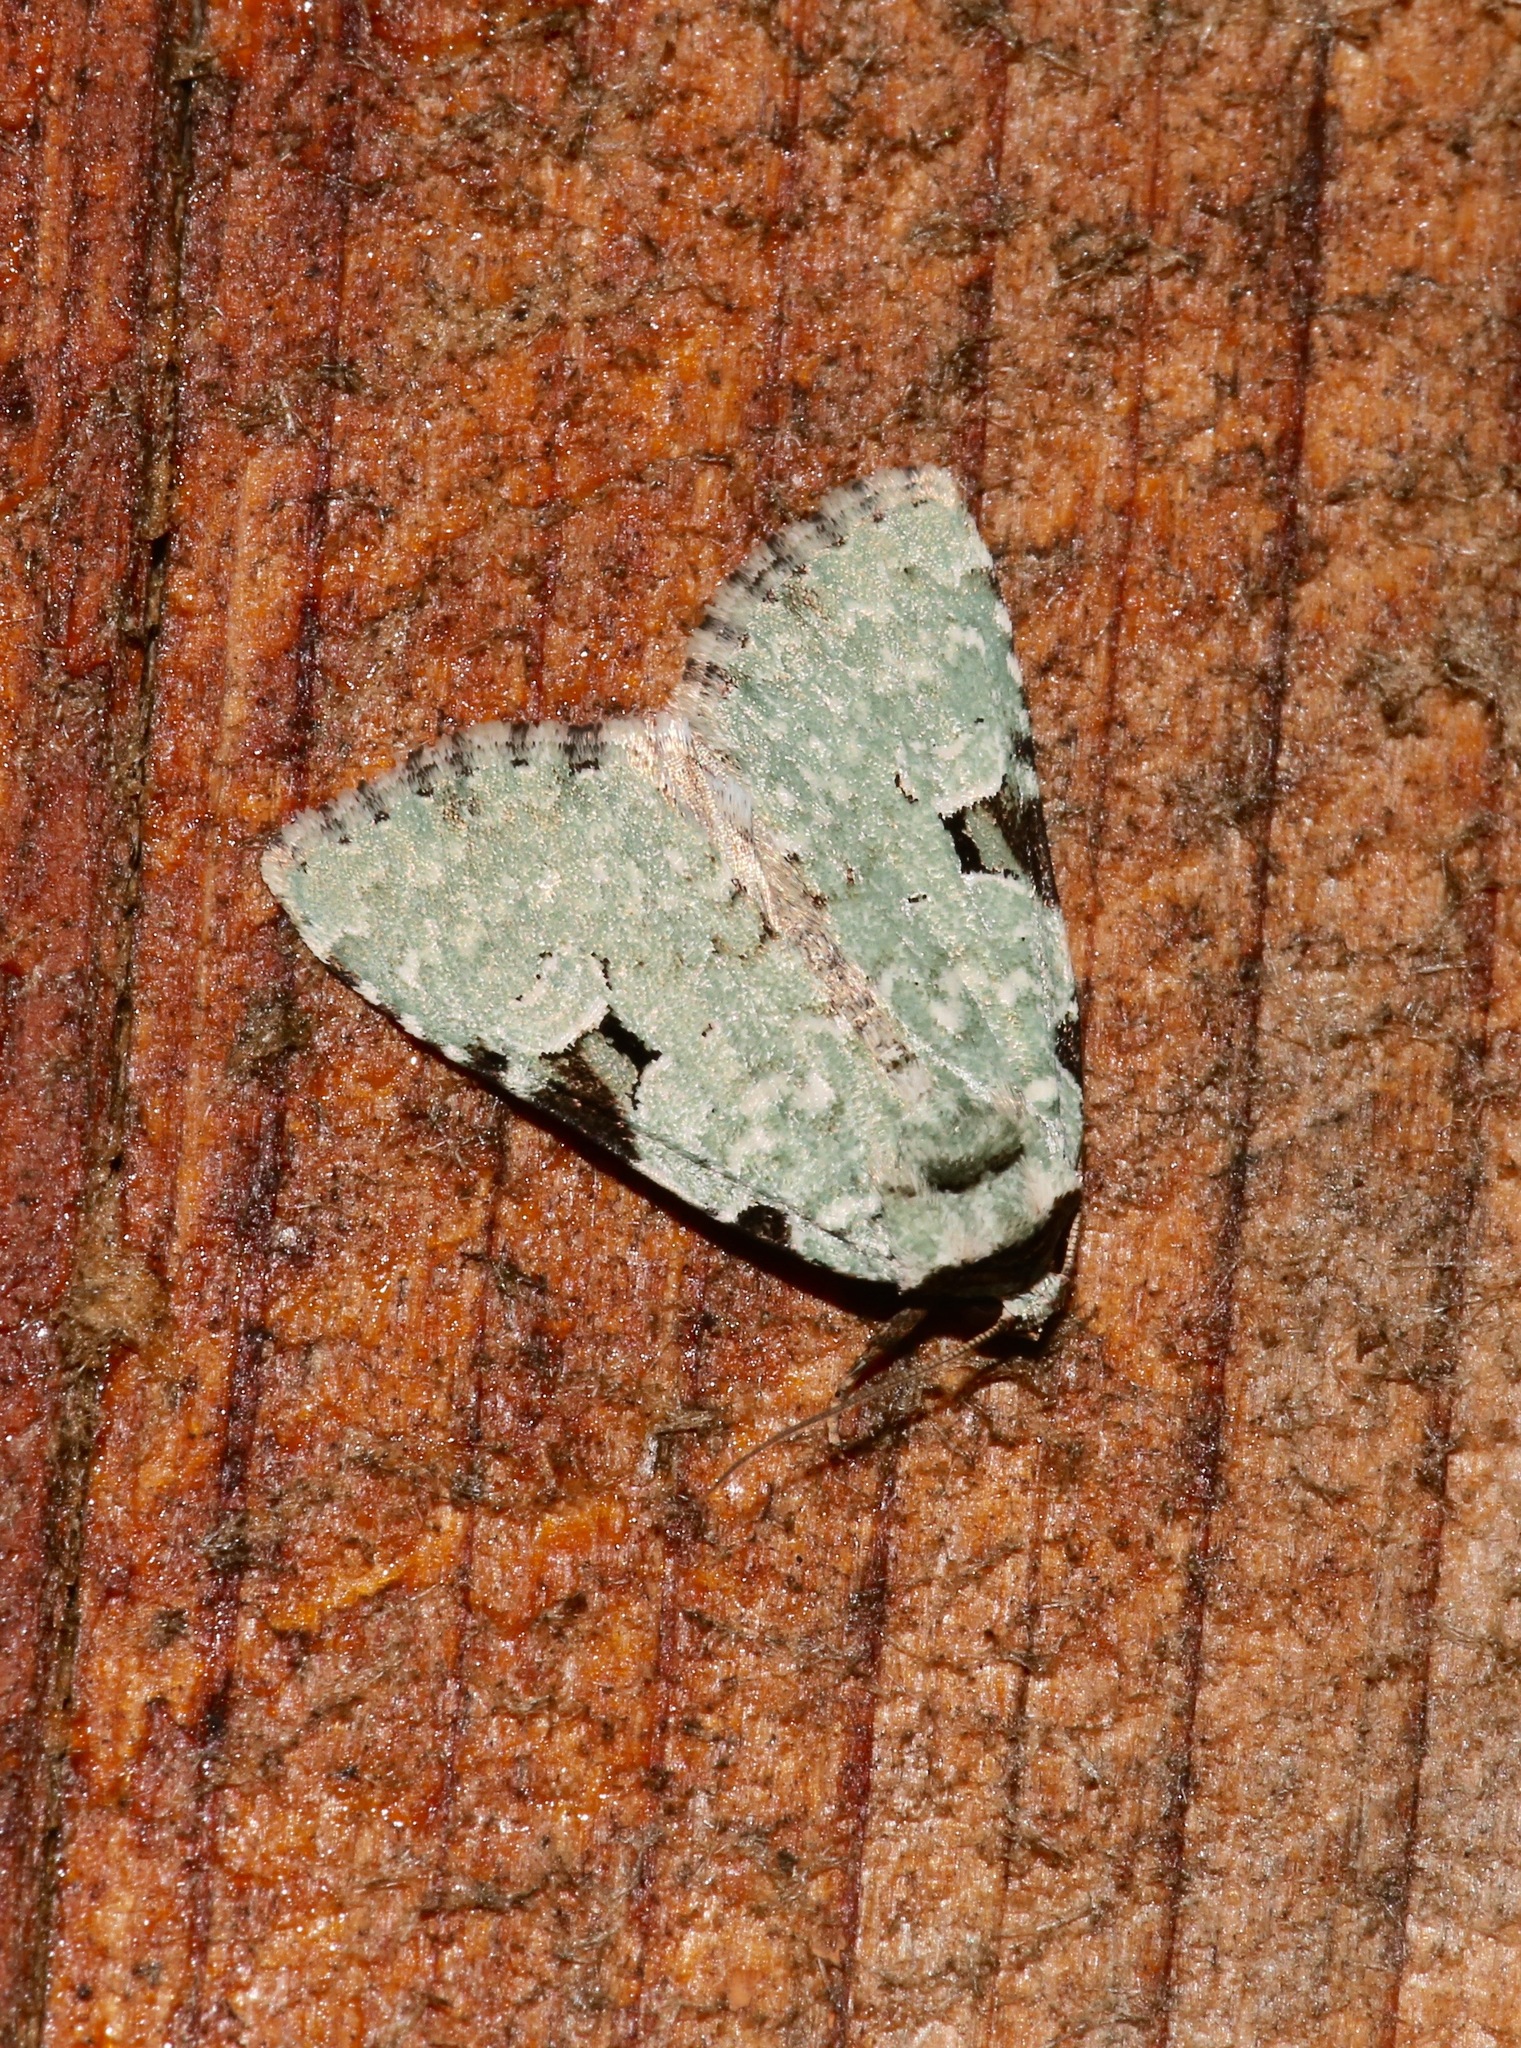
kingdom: Animalia
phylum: Arthropoda
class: Insecta
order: Lepidoptera
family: Noctuidae
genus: Leuconycta
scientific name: Leuconycta diphteroides
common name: Green leuconycta moth
